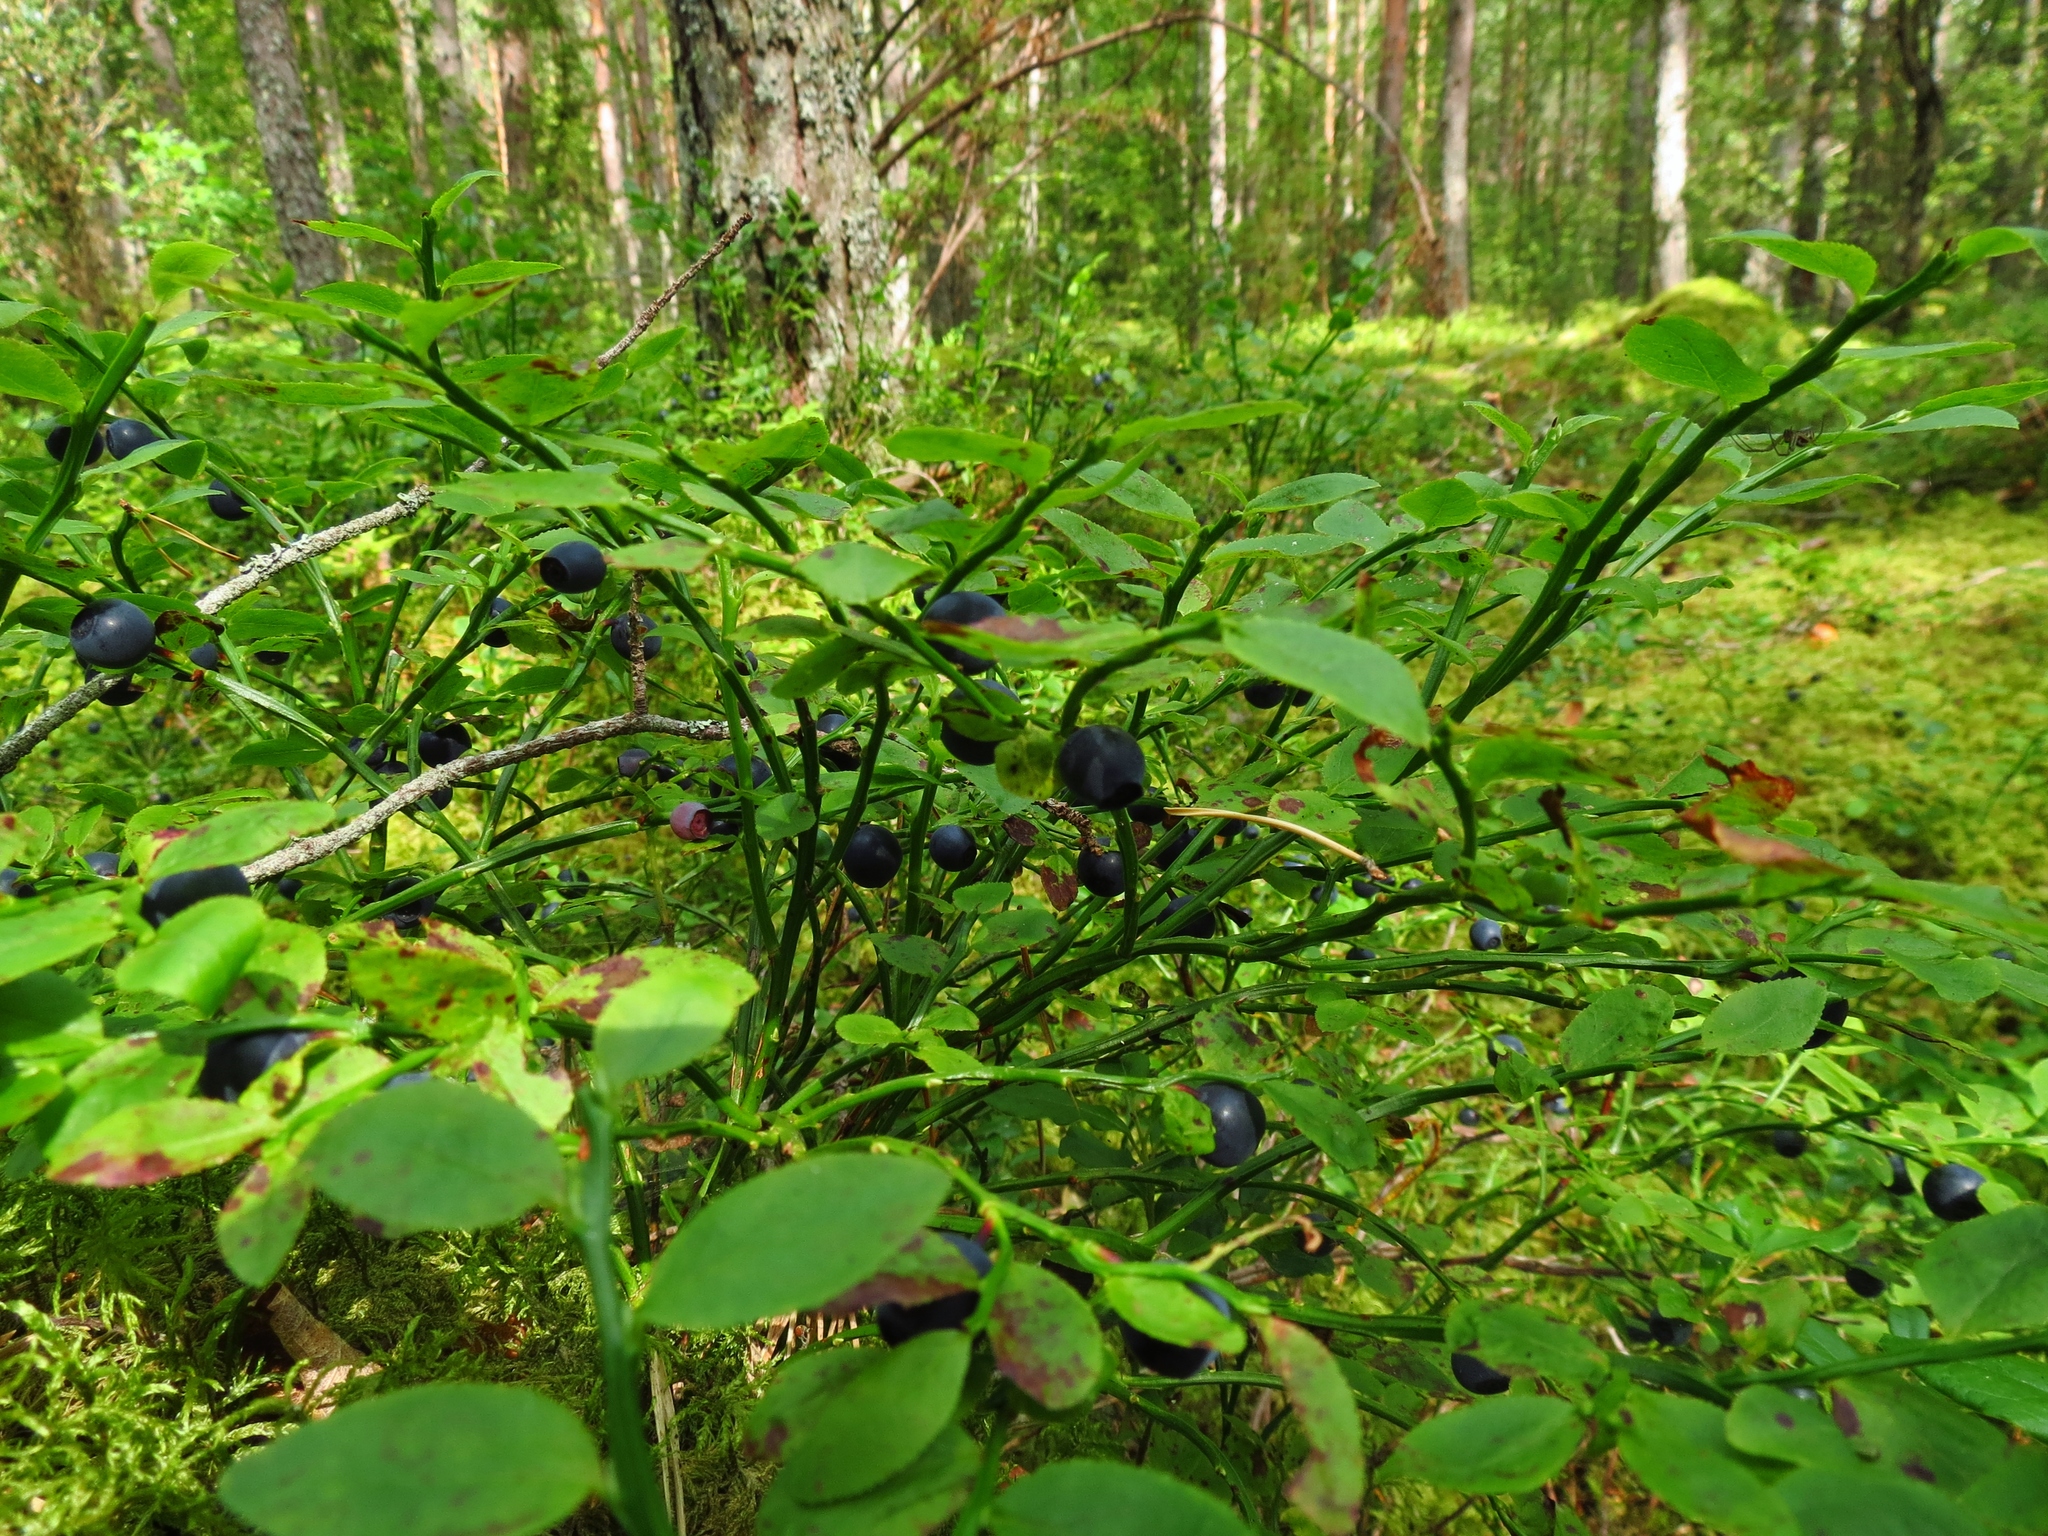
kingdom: Plantae
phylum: Tracheophyta
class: Magnoliopsida
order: Ericales
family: Ericaceae
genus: Vaccinium
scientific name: Vaccinium myrtillus
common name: Bilberry
